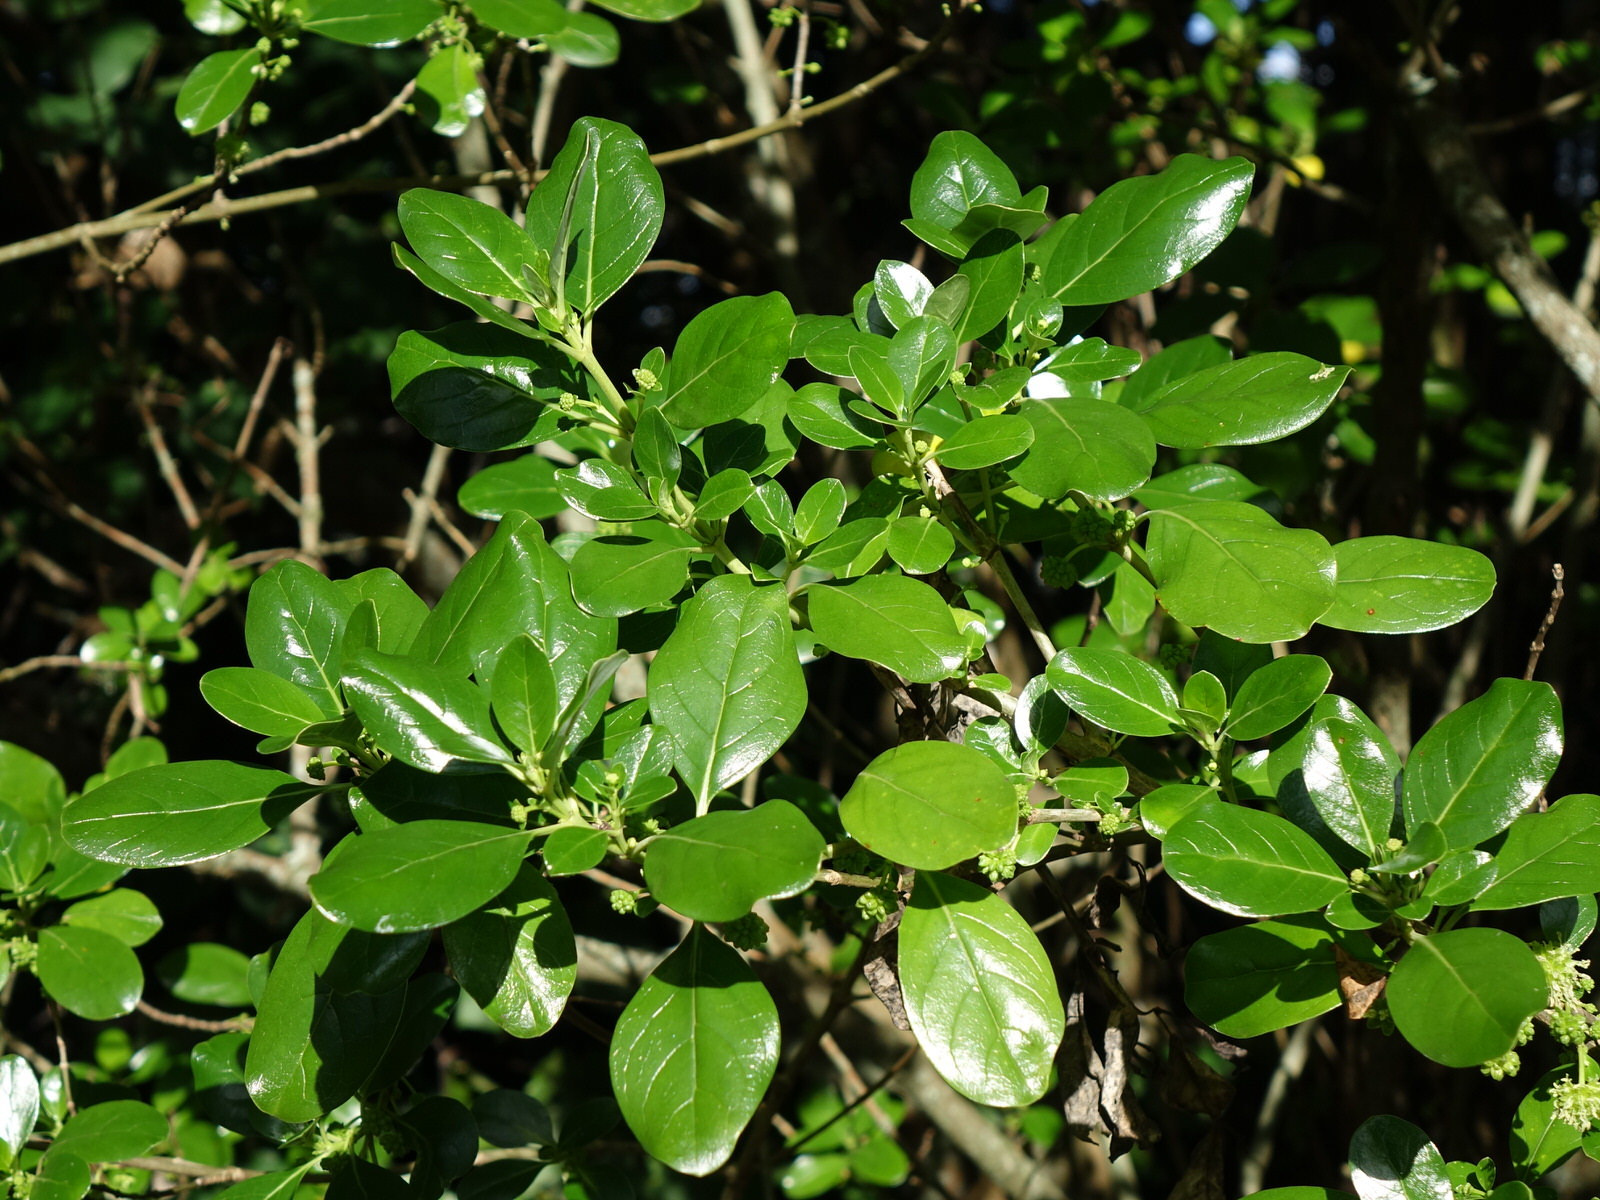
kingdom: Plantae
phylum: Tracheophyta
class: Magnoliopsida
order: Gentianales
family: Rubiaceae
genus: Coprosma
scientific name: Coprosma repens
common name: Tree bedstraw
